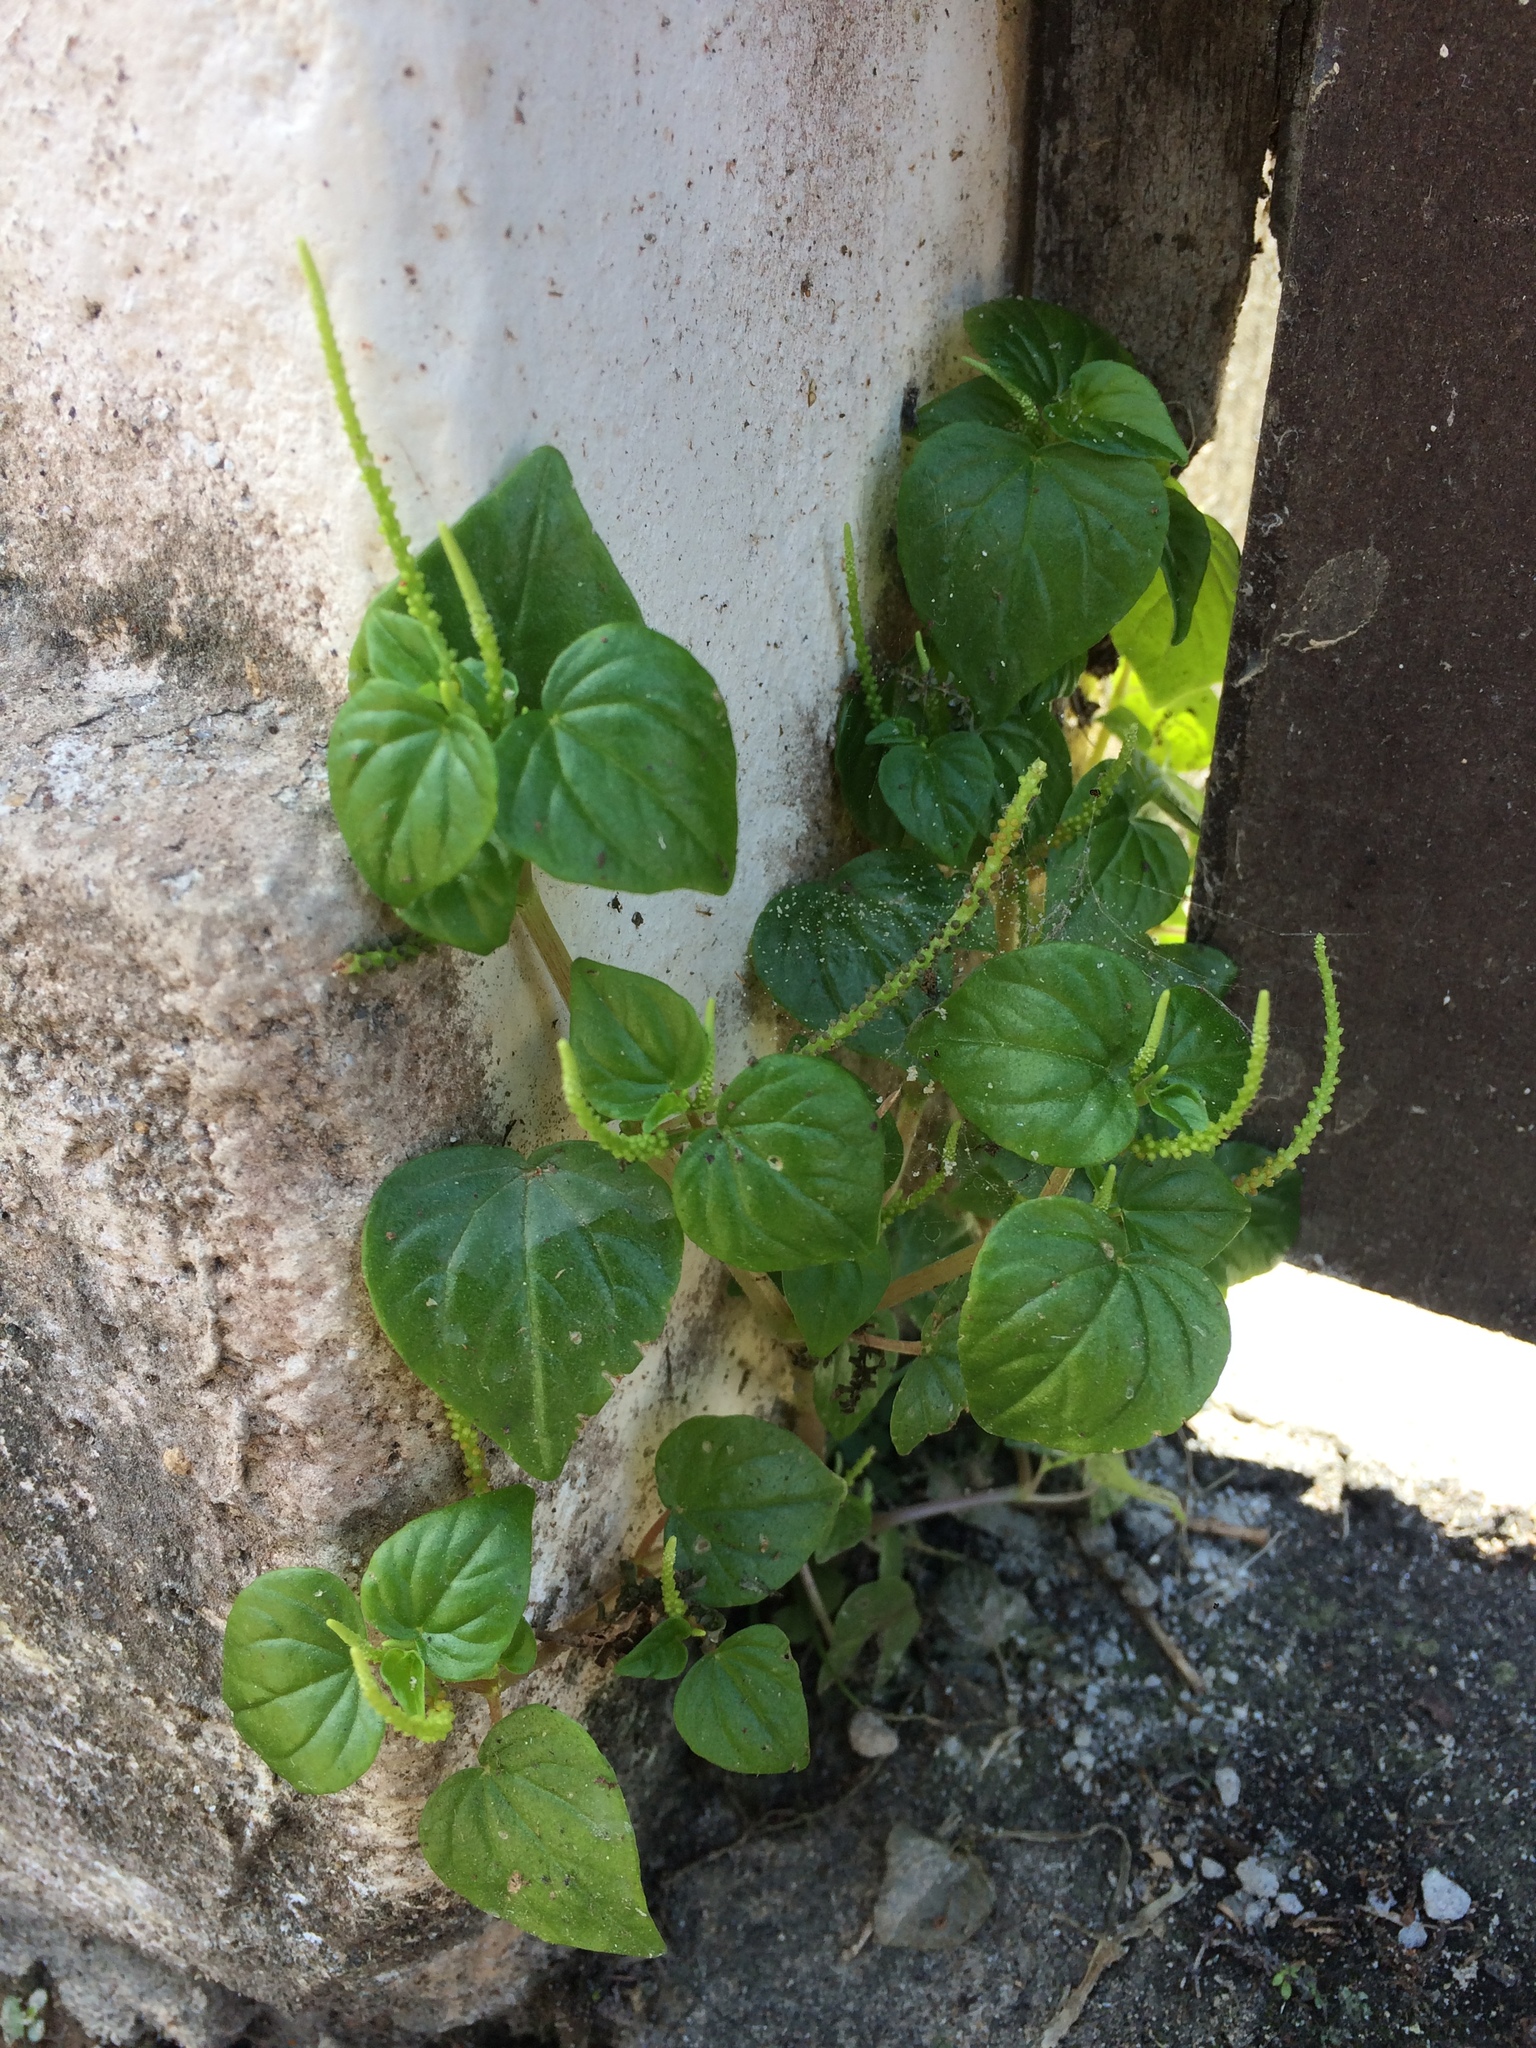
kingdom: Plantae
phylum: Tracheophyta
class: Magnoliopsida
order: Piperales
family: Piperaceae
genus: Peperomia
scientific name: Peperomia pellucida
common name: Man to man
